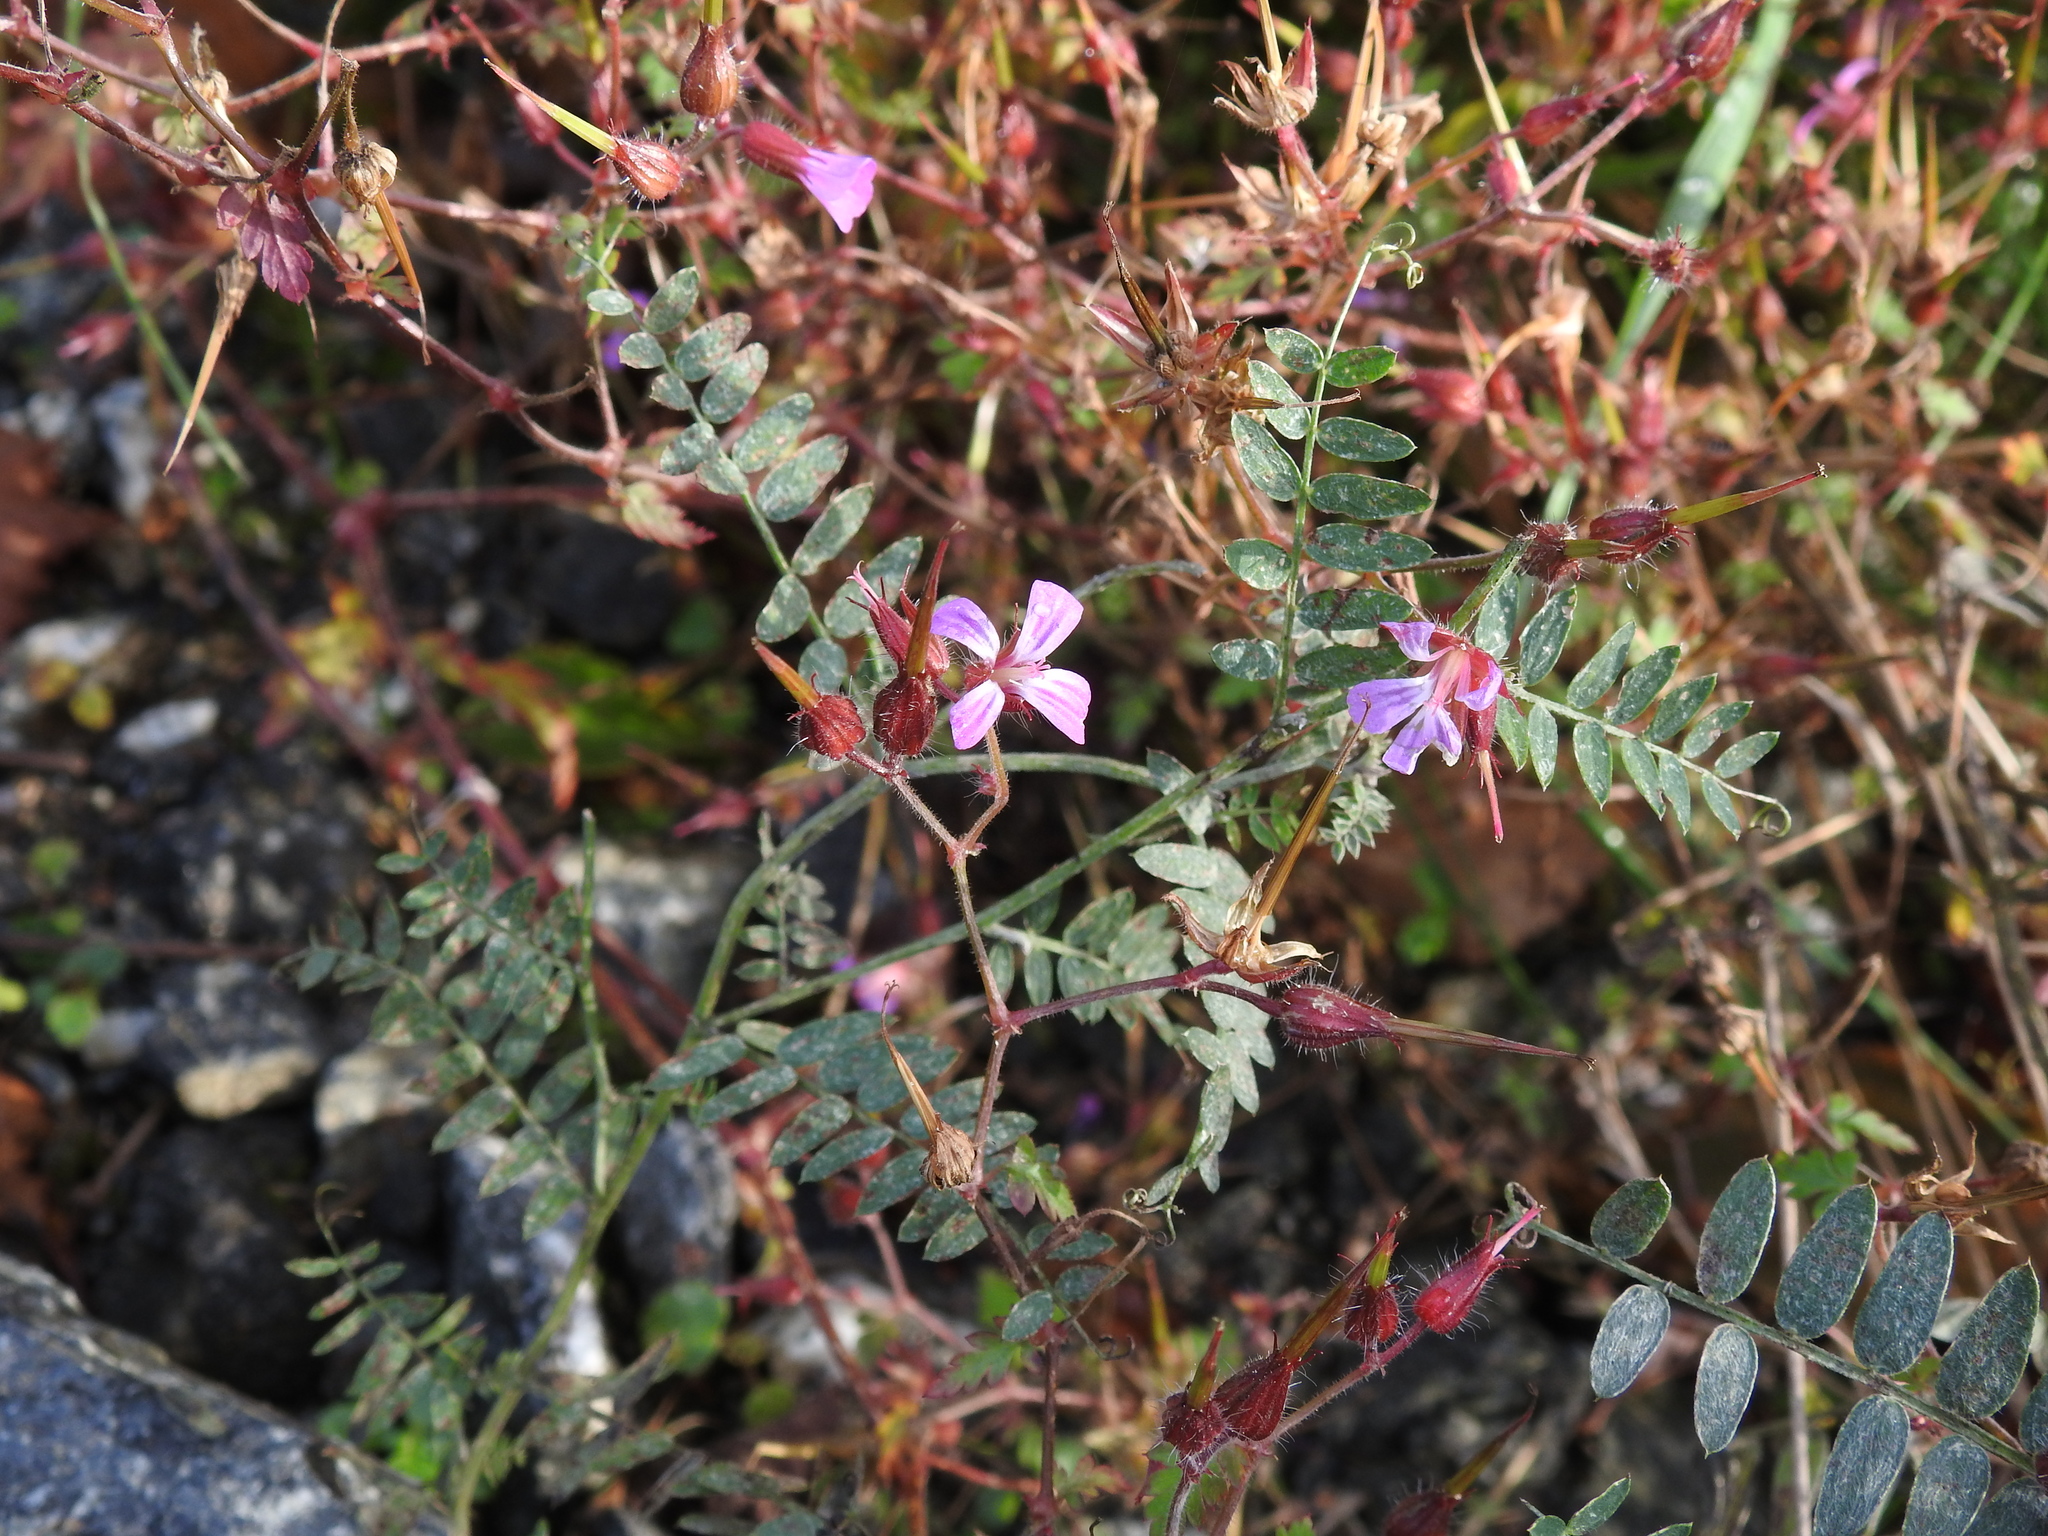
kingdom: Plantae
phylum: Tracheophyta
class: Magnoliopsida
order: Geraniales
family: Geraniaceae
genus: Geranium
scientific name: Geranium robertianum
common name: Herb-robert
